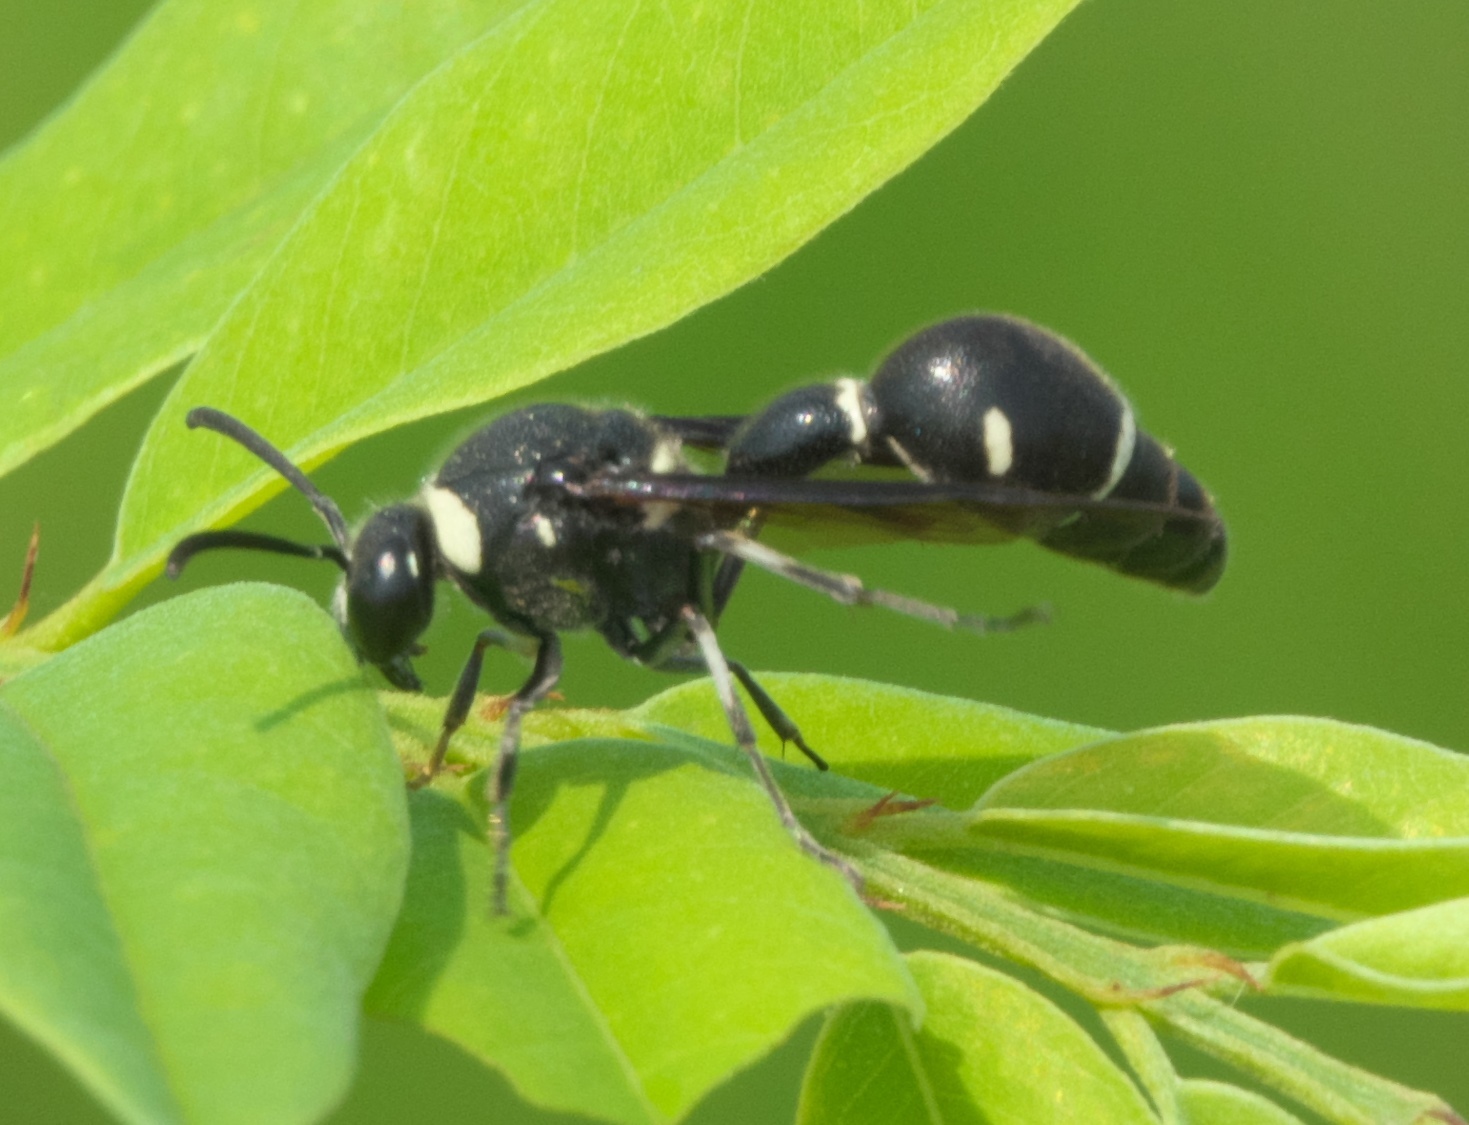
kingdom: Animalia
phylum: Arthropoda
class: Insecta
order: Hymenoptera
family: Vespidae
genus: Eumenes
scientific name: Eumenes fraternus
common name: Fraternal potter wasp
